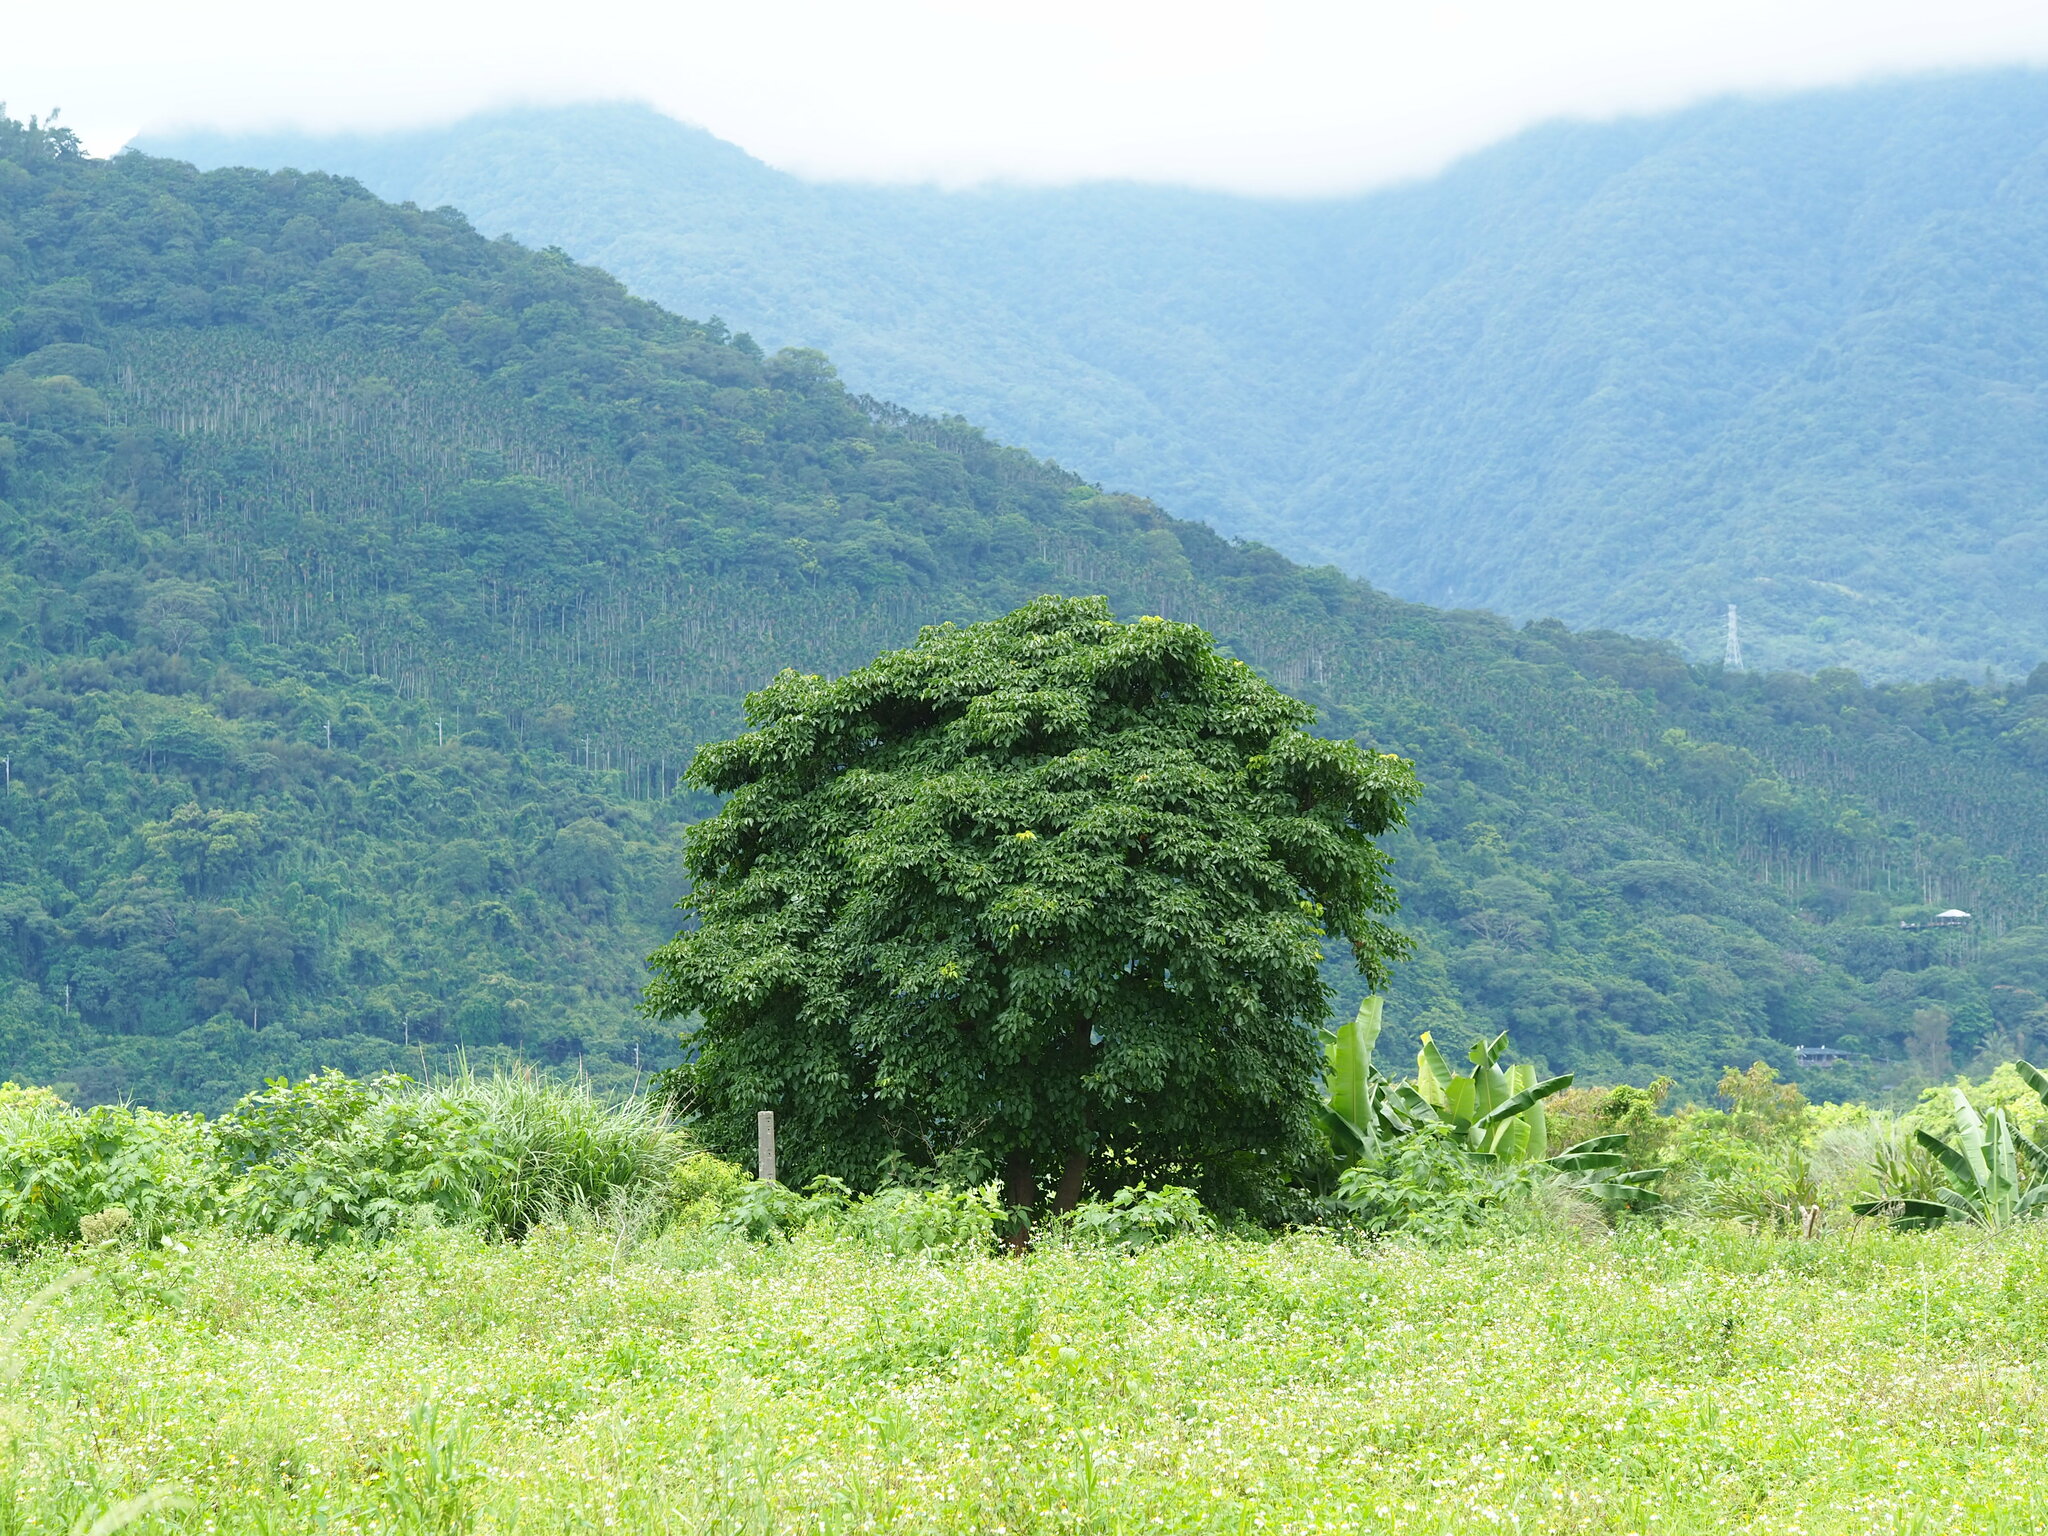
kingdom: Plantae
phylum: Tracheophyta
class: Magnoliopsida
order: Malpighiales
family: Phyllanthaceae
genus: Bischofia
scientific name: Bischofia javanica
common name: Javanese bishopwood
